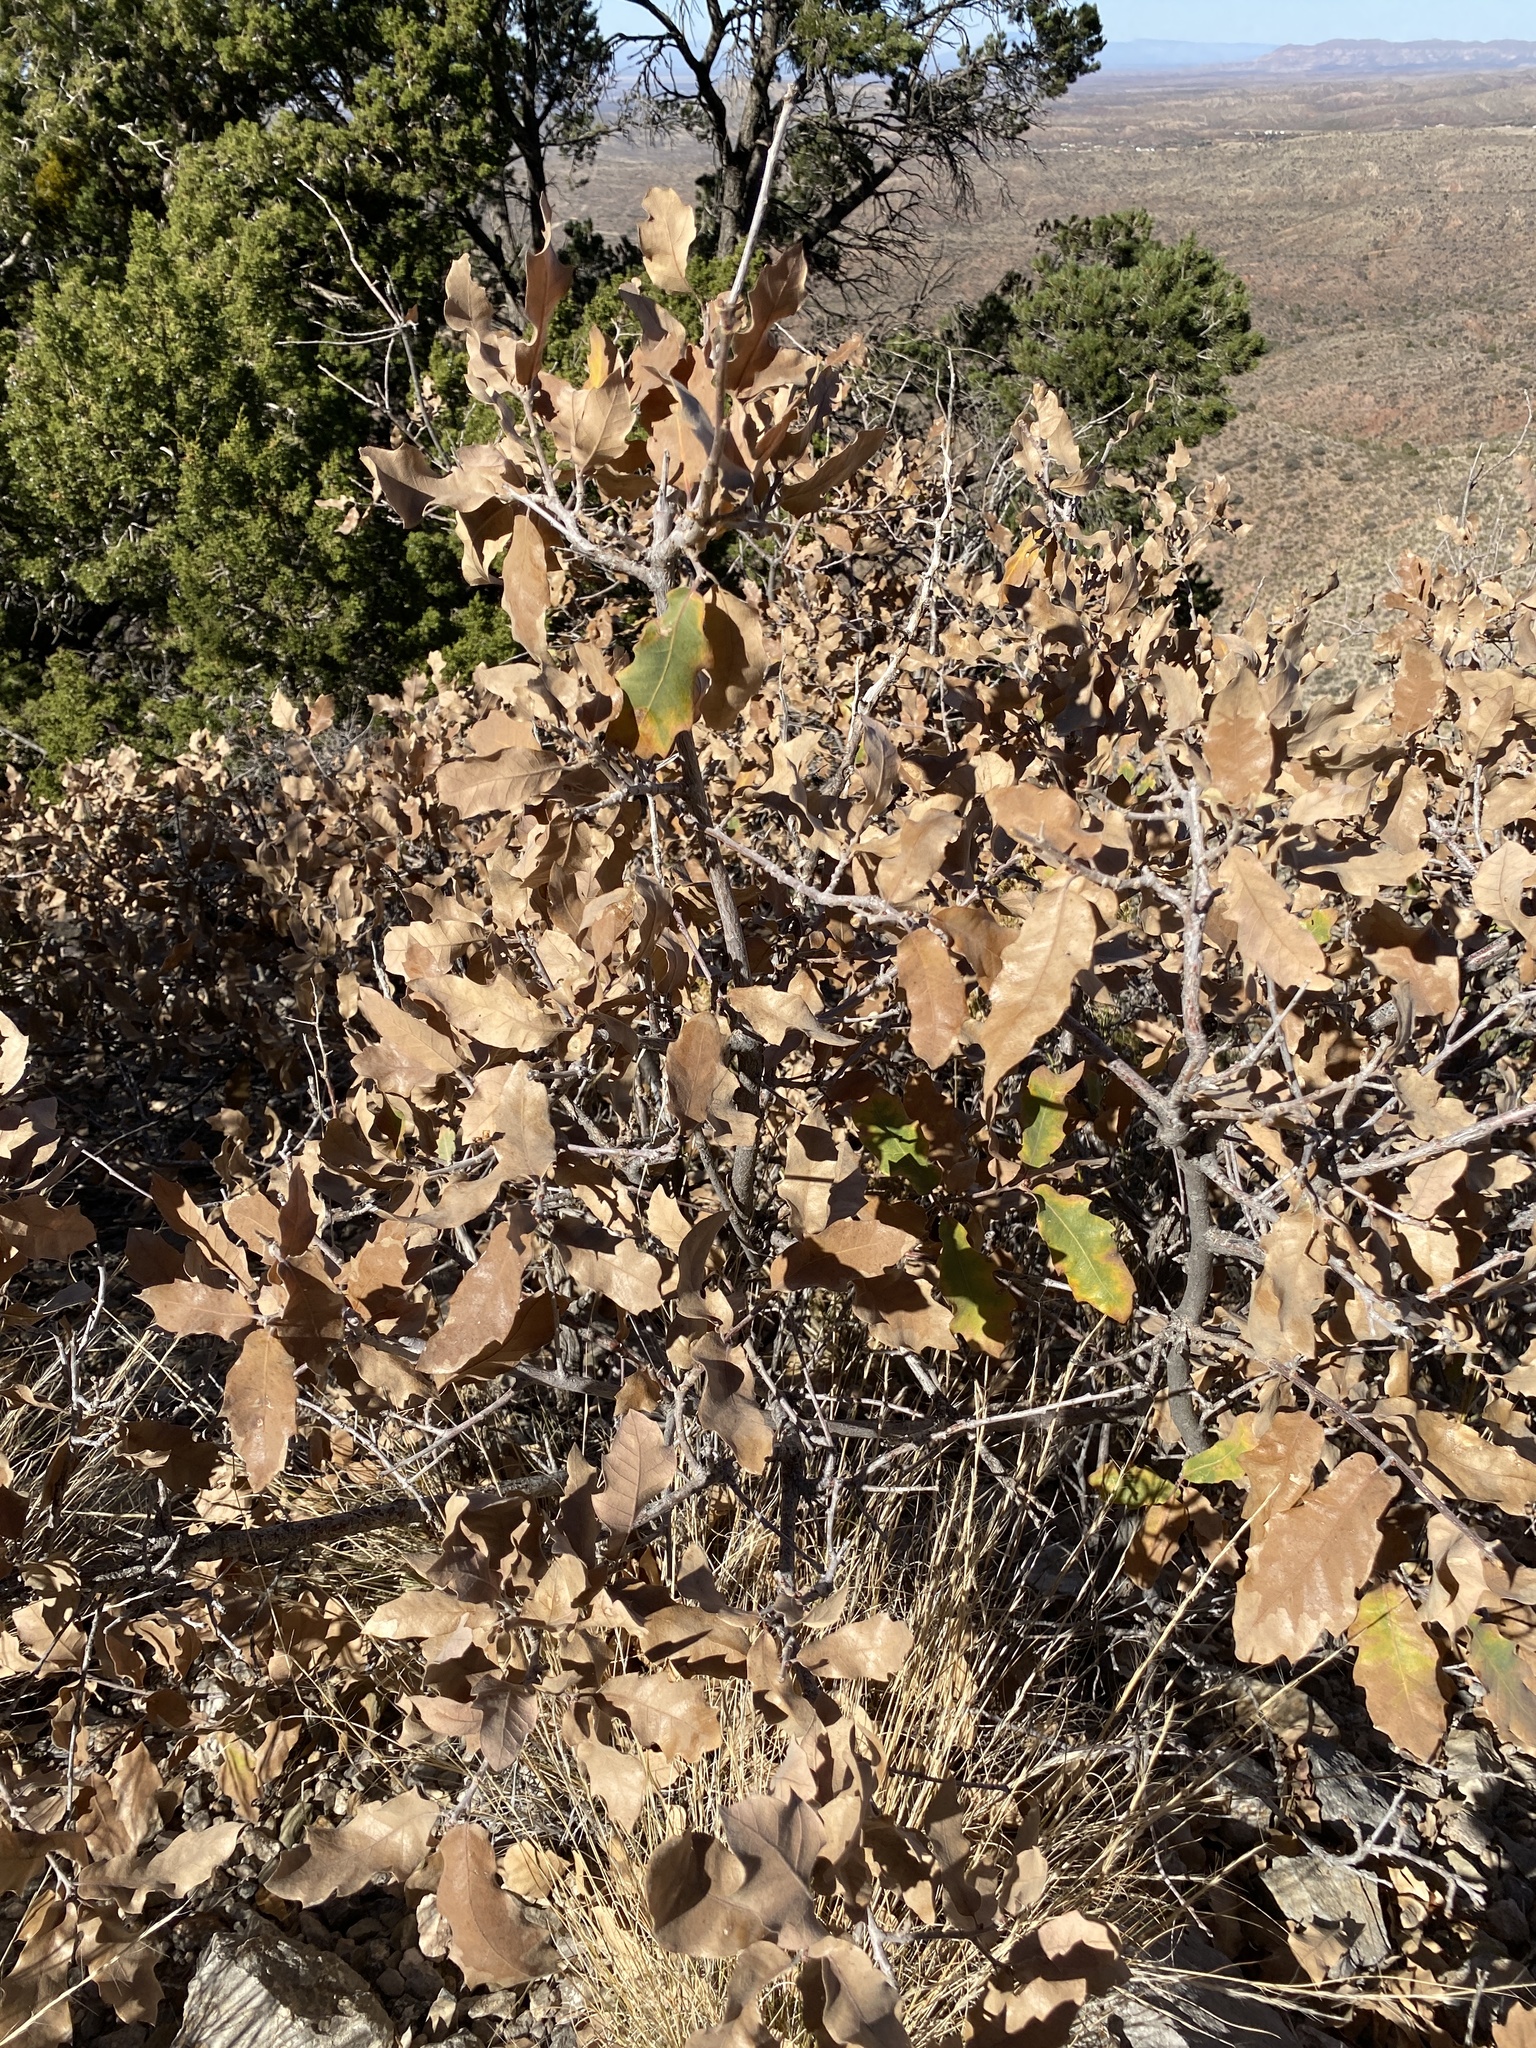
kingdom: Plantae
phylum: Tracheophyta
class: Magnoliopsida
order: Fagales
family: Fagaceae
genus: Quercus
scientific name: Quercus undulata
